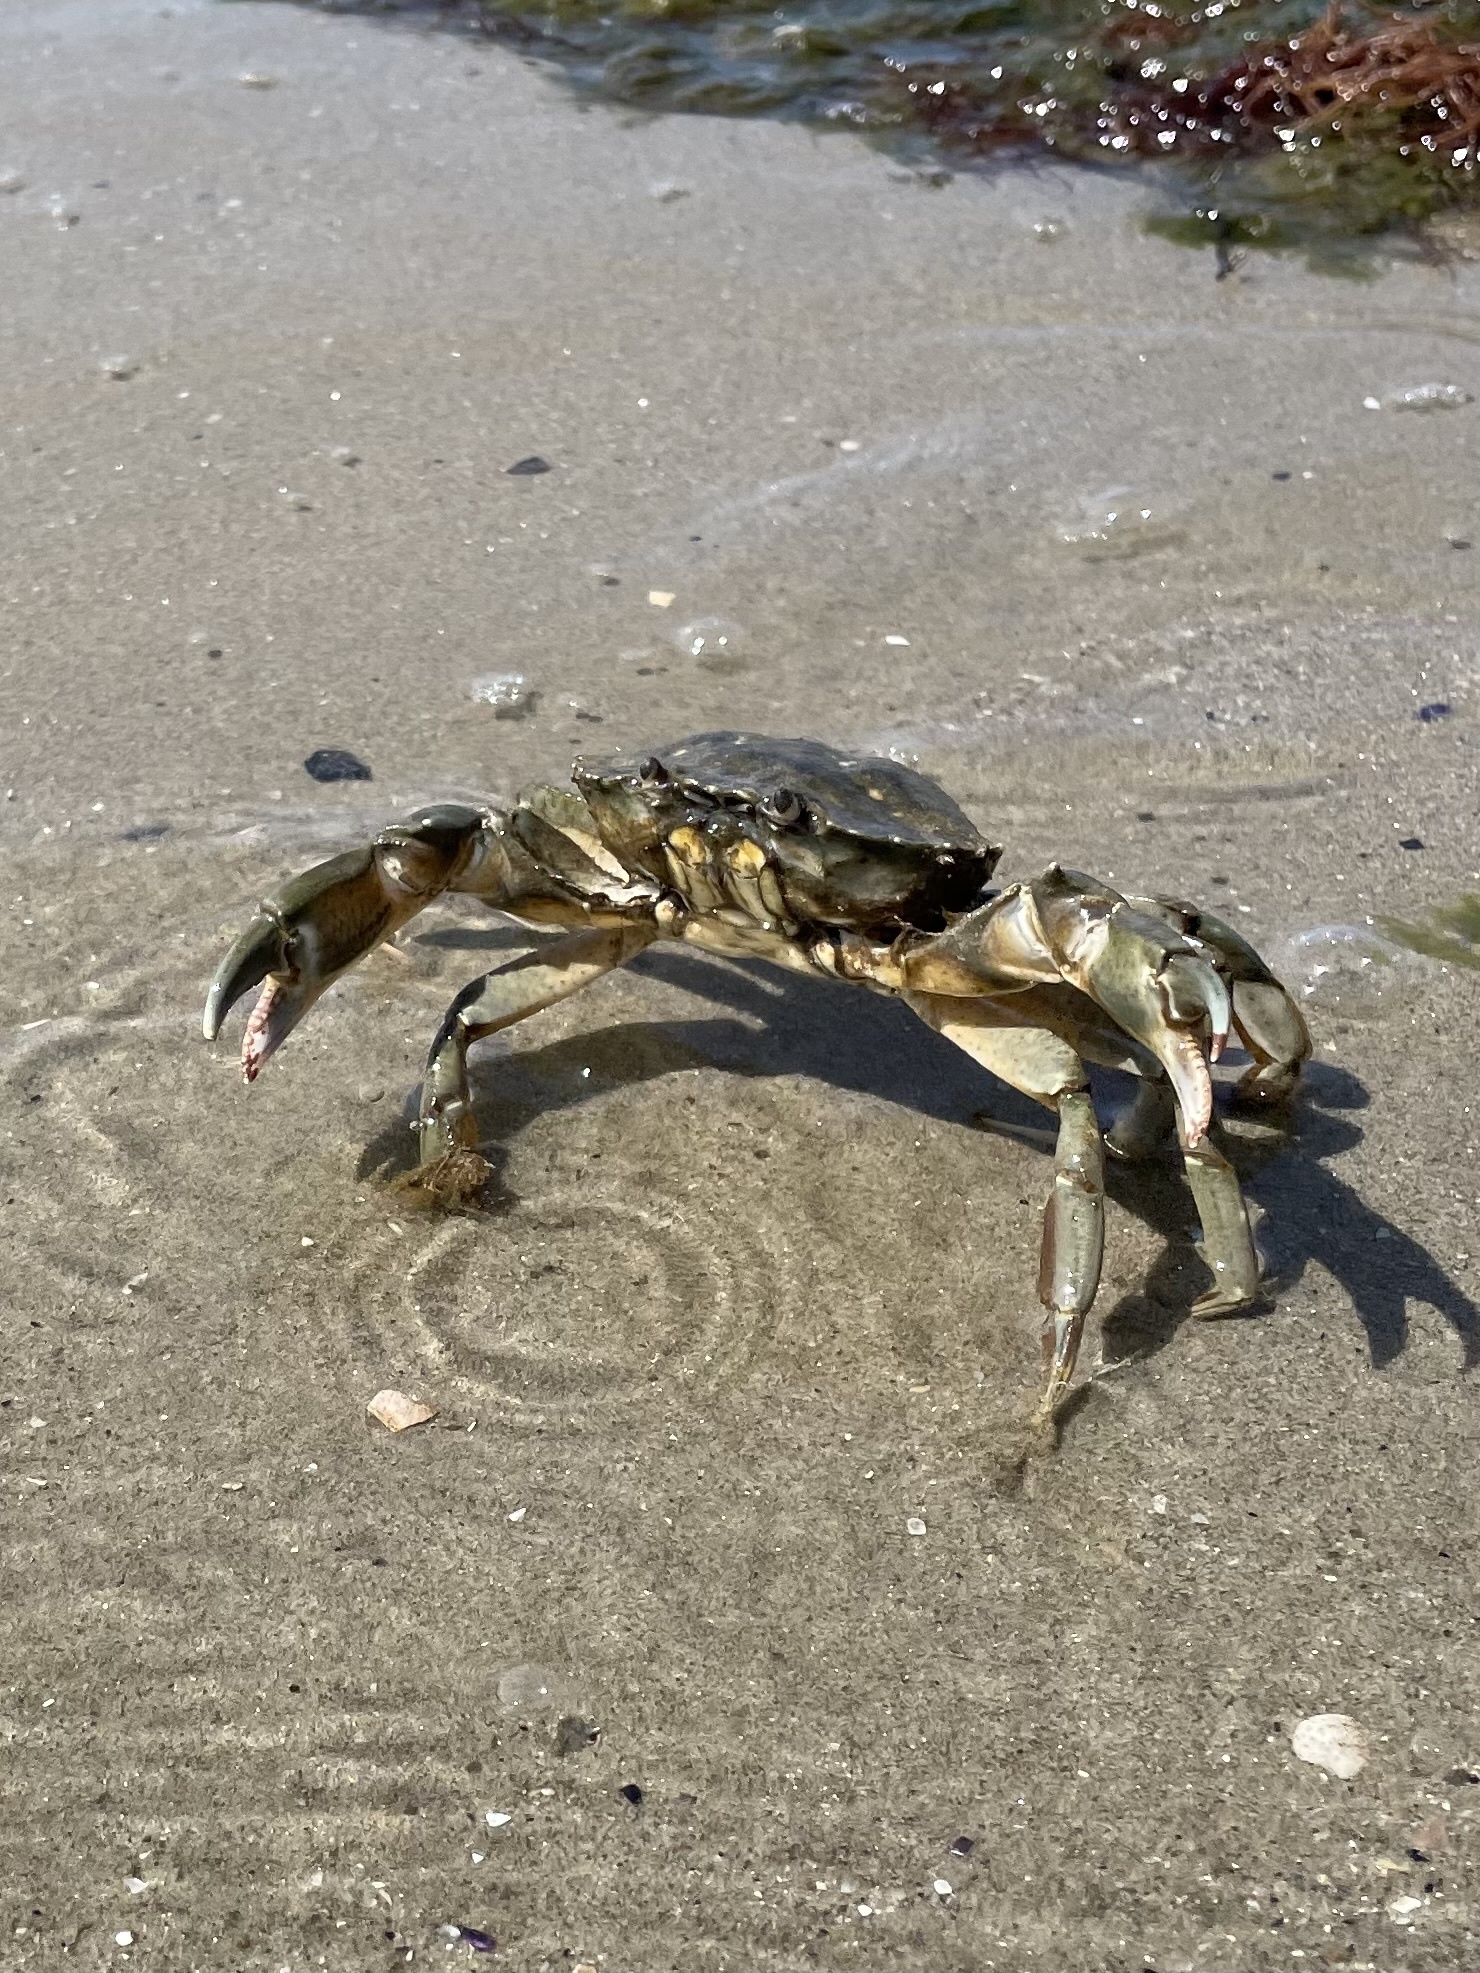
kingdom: Animalia
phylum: Arthropoda
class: Malacostraca
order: Decapoda
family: Carcinidae
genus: Carcinus
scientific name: Carcinus aestuarii
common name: Mediterranean green crab
